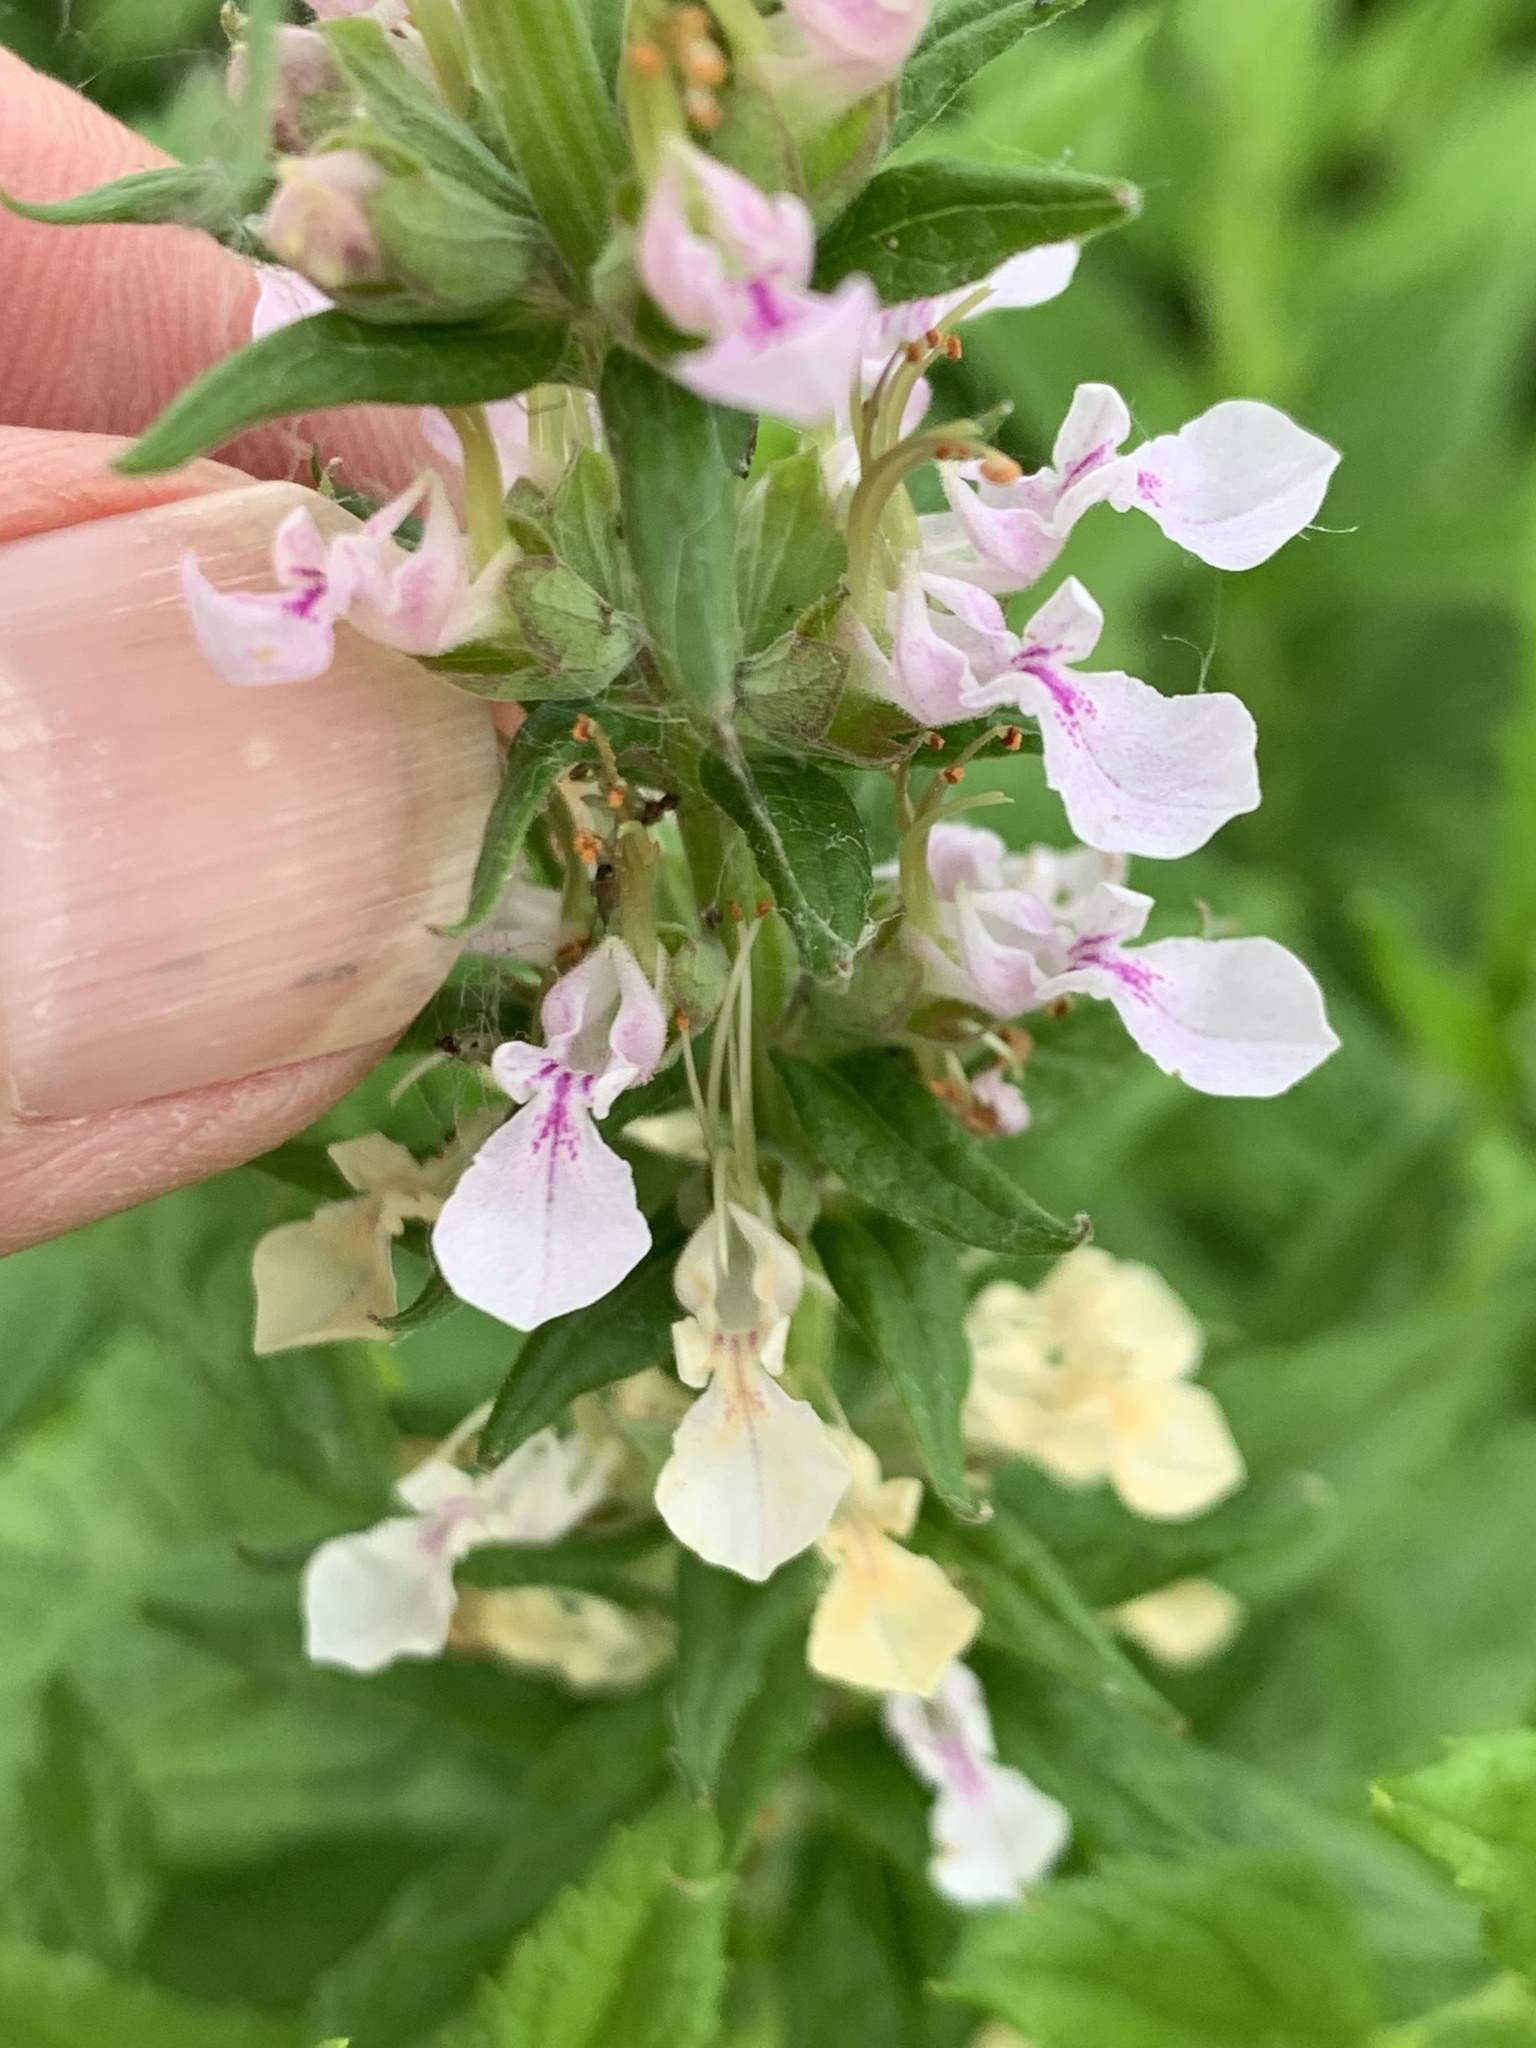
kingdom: Plantae
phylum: Tracheophyta
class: Magnoliopsida
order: Lamiales
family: Lamiaceae
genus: Teucrium
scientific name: Teucrium canadense
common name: American germander
